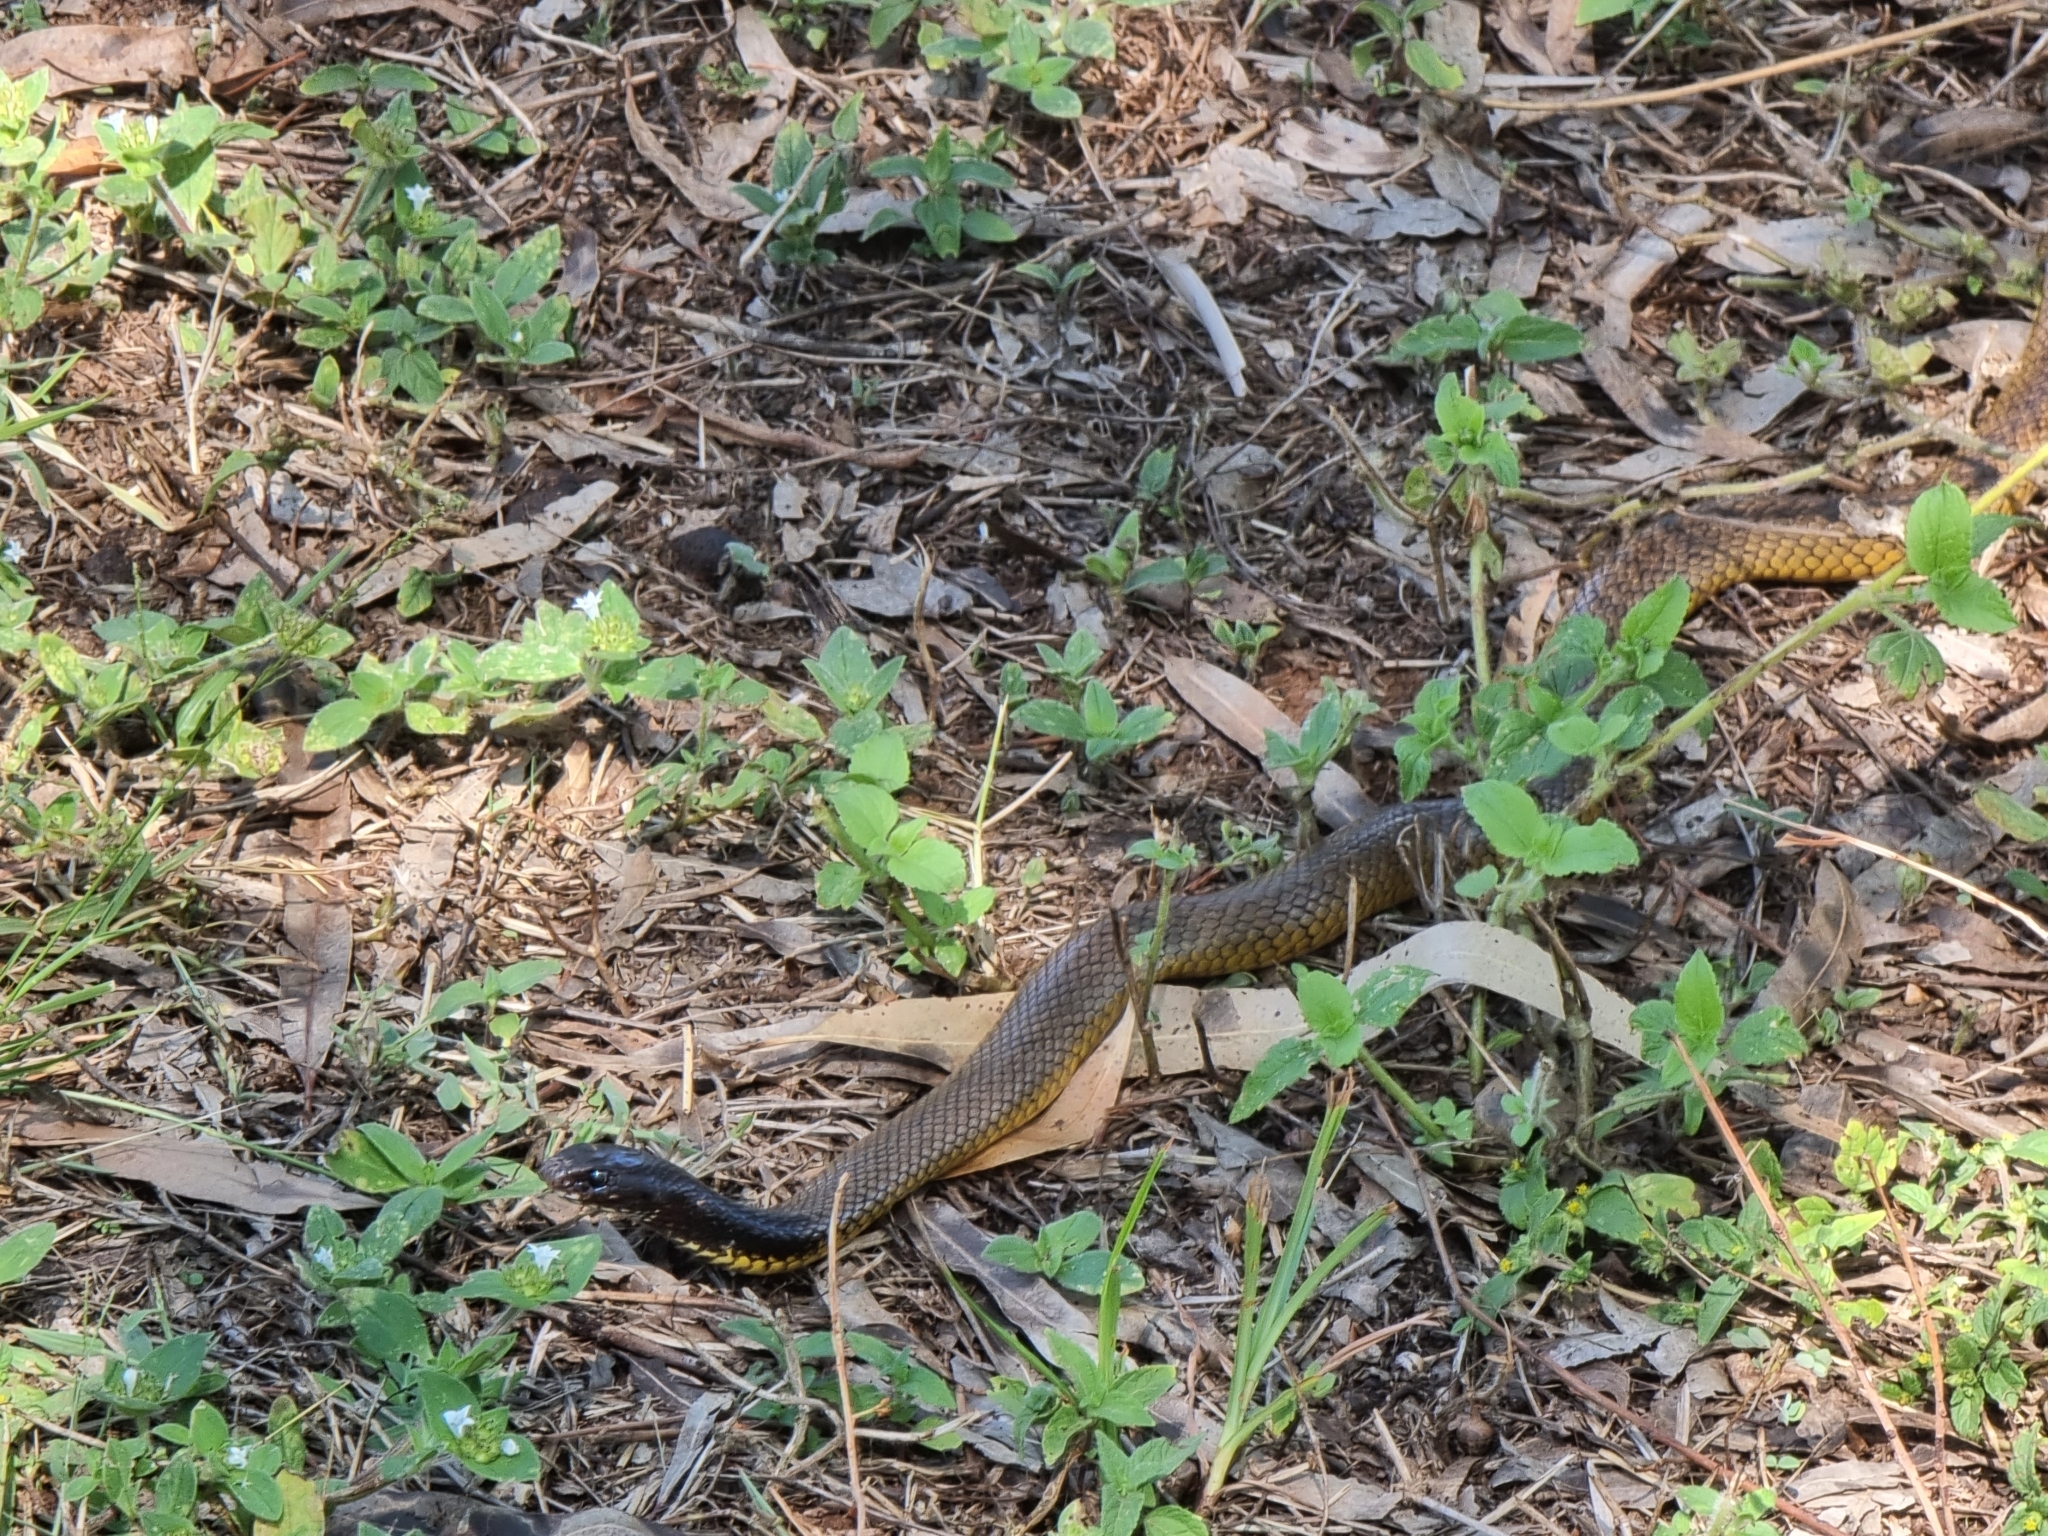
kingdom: Animalia
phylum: Chordata
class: Squamata
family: Elapidae
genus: Pseudonaja
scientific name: Pseudonaja nuchalis
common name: Gwardar
